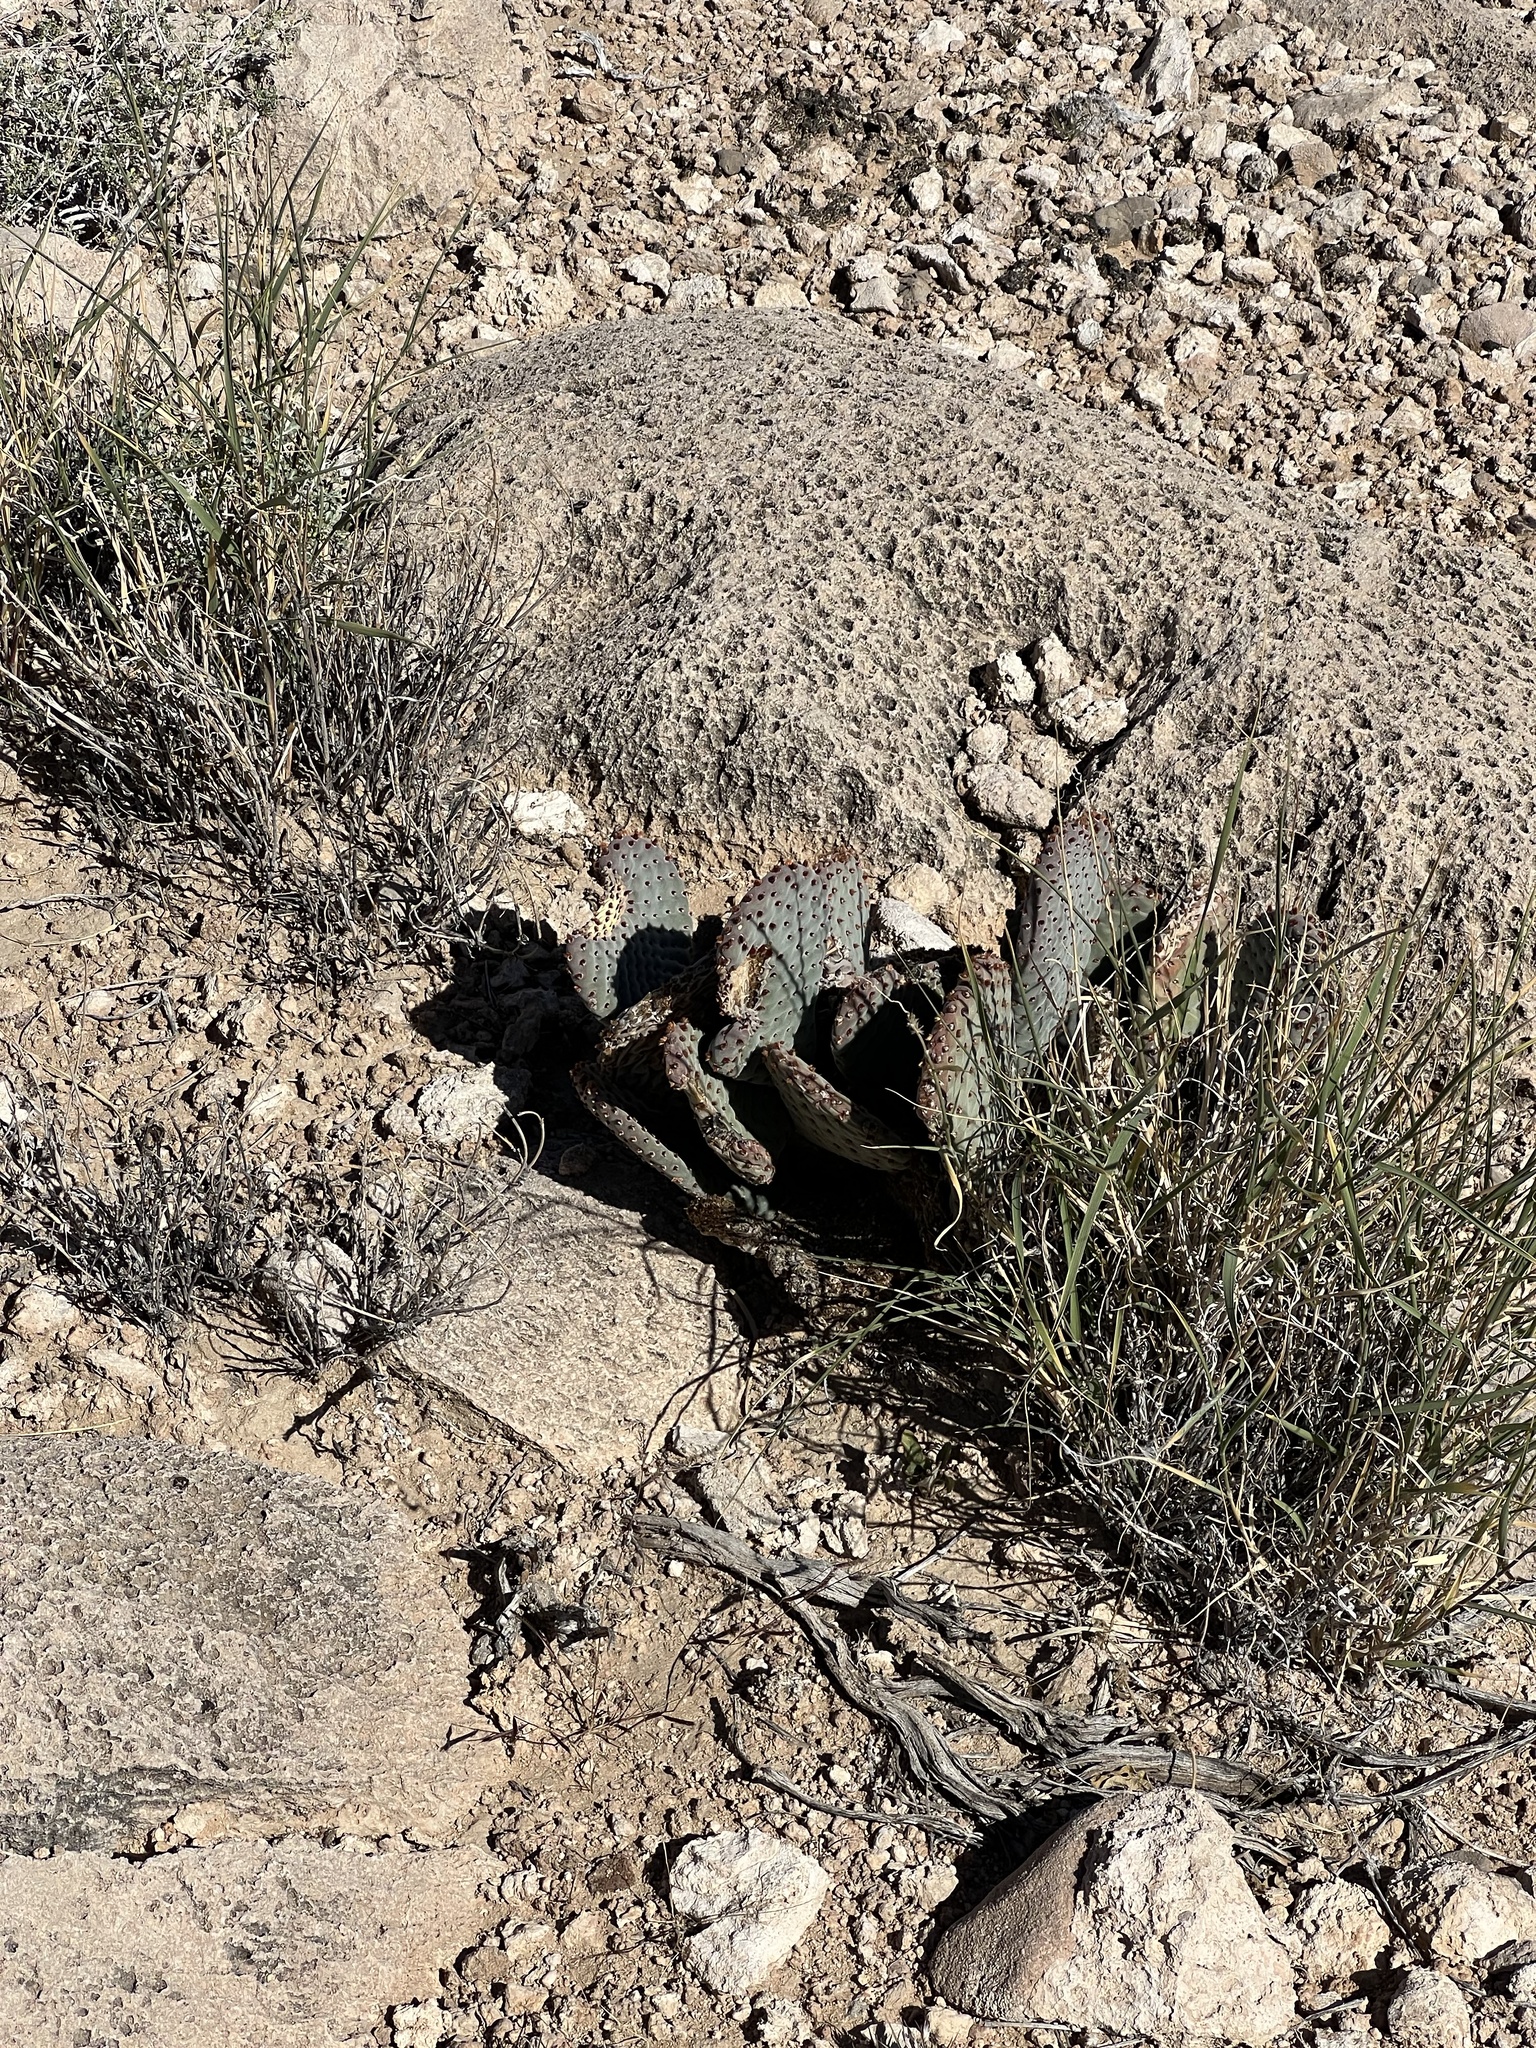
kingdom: Plantae
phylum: Tracheophyta
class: Magnoliopsida
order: Caryophyllales
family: Cactaceae
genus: Opuntia
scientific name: Opuntia basilaris
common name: Beavertail prickly-pear
